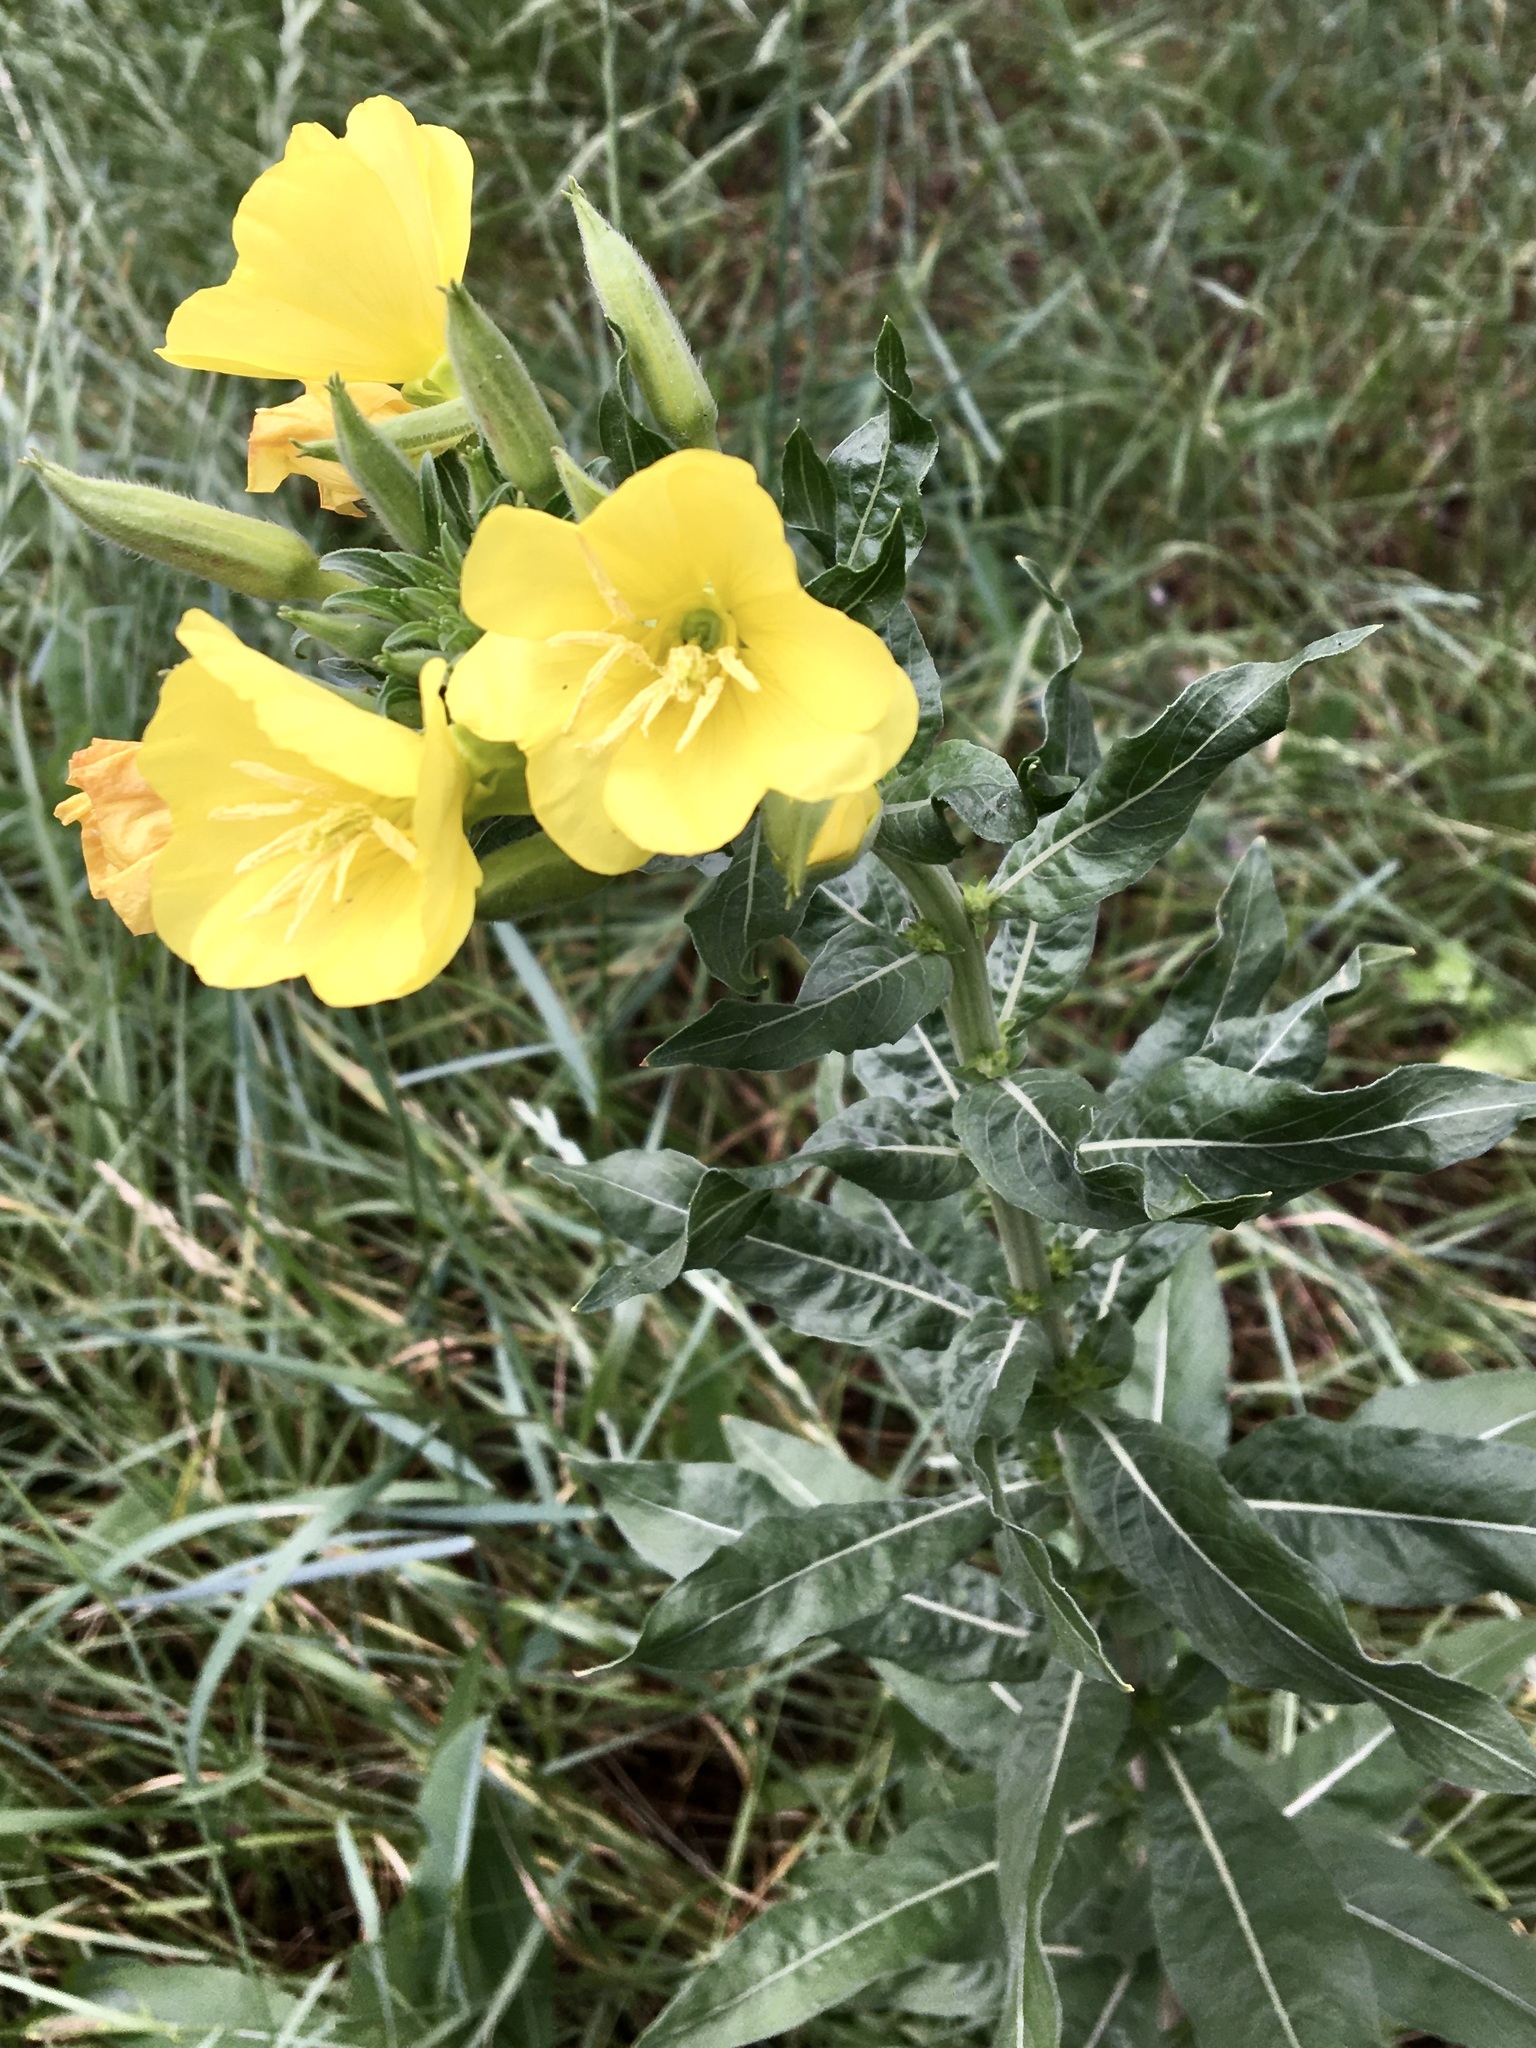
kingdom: Plantae
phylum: Tracheophyta
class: Magnoliopsida
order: Myrtales
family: Onagraceae
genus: Oenothera
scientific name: Oenothera biennis
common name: Common evening-primrose
